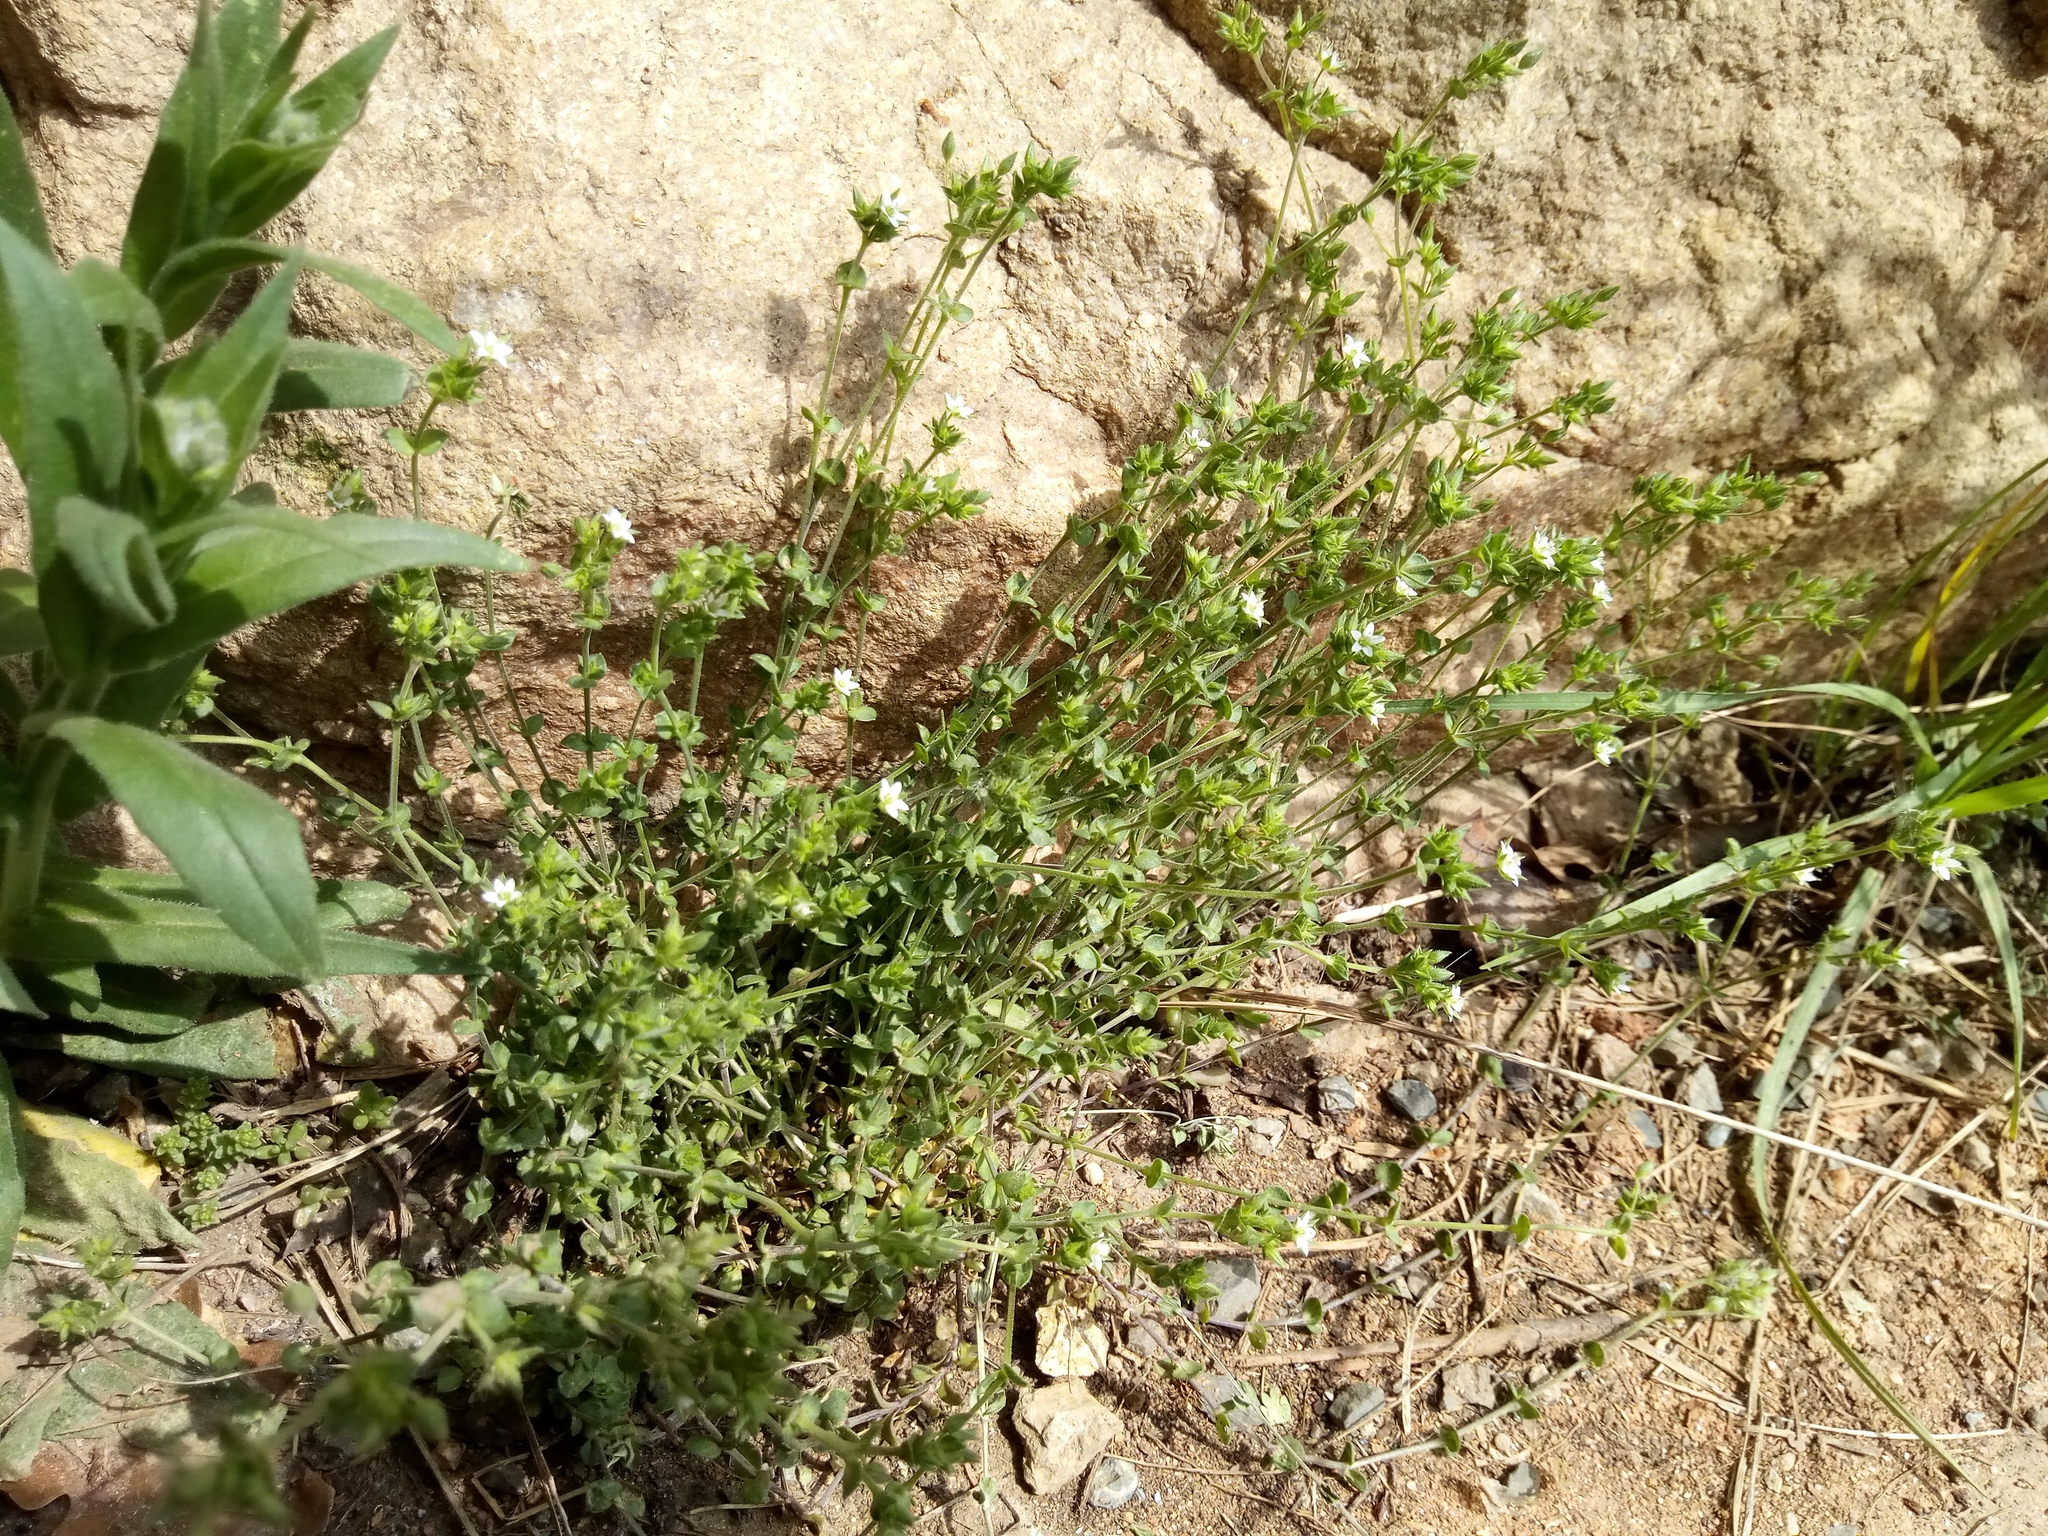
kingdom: Plantae
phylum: Tracheophyta
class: Magnoliopsida
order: Caryophyllales
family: Caryophyllaceae
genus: Arenaria
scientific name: Arenaria serpyllifolia
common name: Thyme-leaved sandwort
